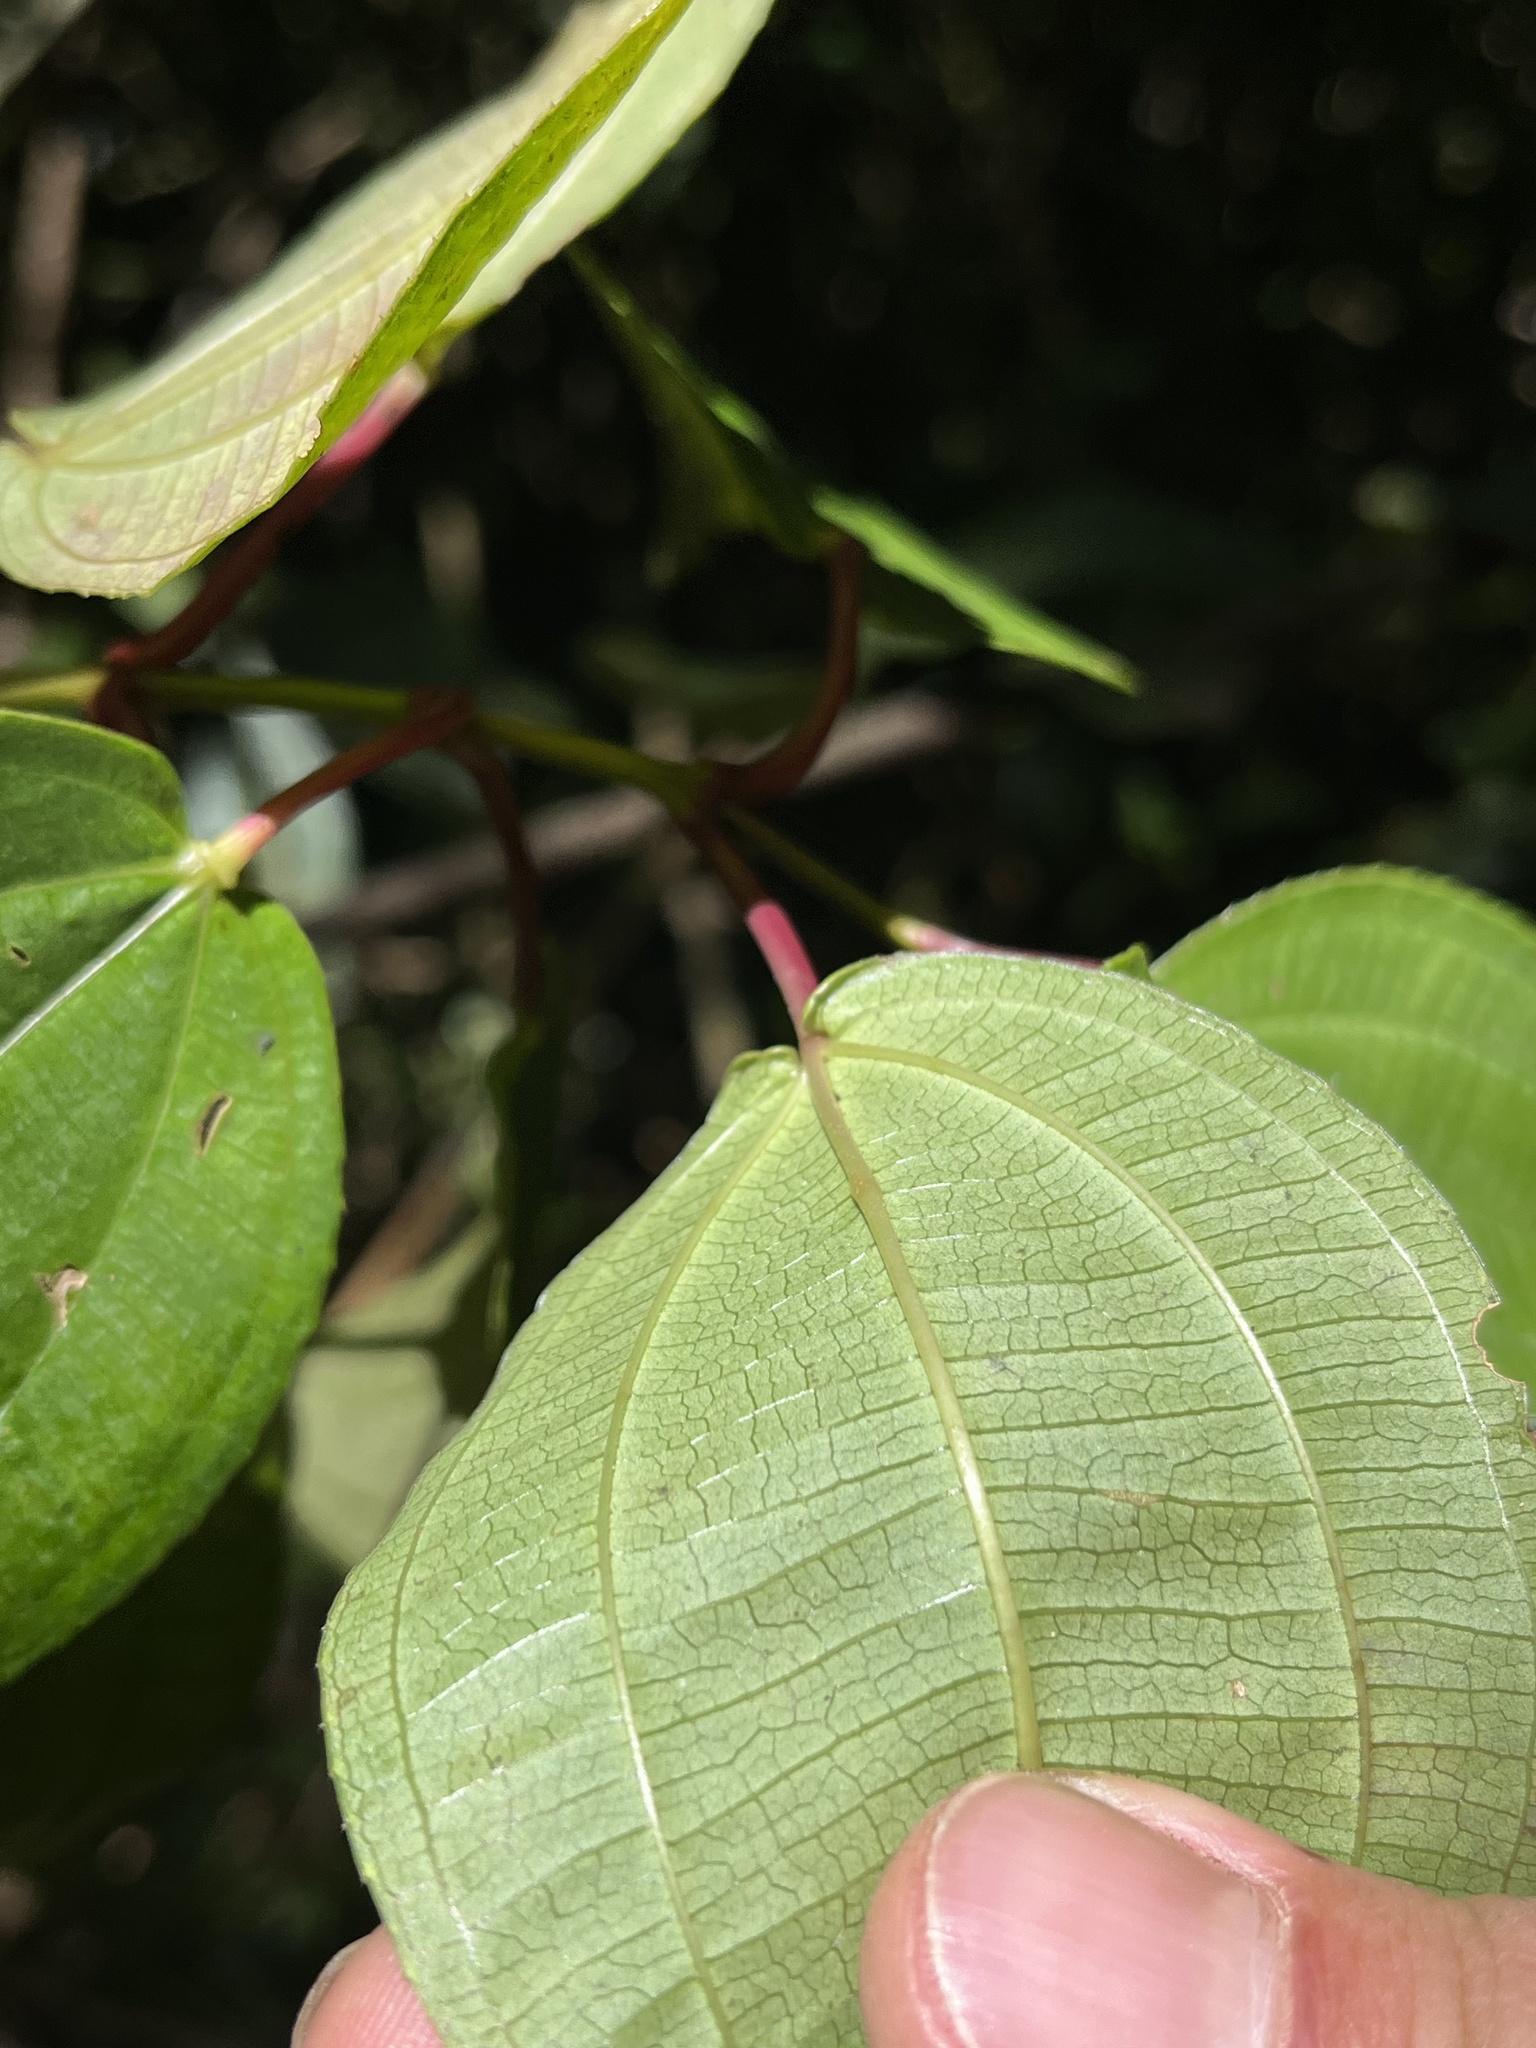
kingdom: Plantae
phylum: Tracheophyta
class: Magnoliopsida
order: Myrtales
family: Melastomataceae
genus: Axinaea
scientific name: Axinaea scutigera
